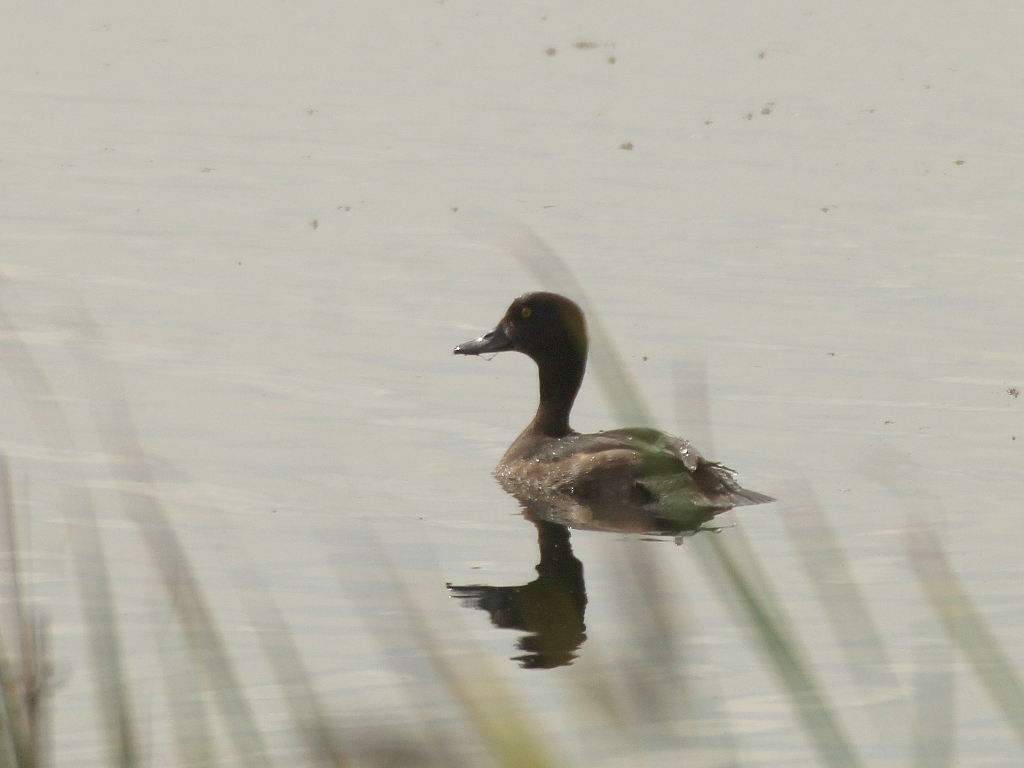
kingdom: Animalia
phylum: Chordata
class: Aves
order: Anseriformes
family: Anatidae
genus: Aythya
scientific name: Aythya fuligula
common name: Tufted duck
